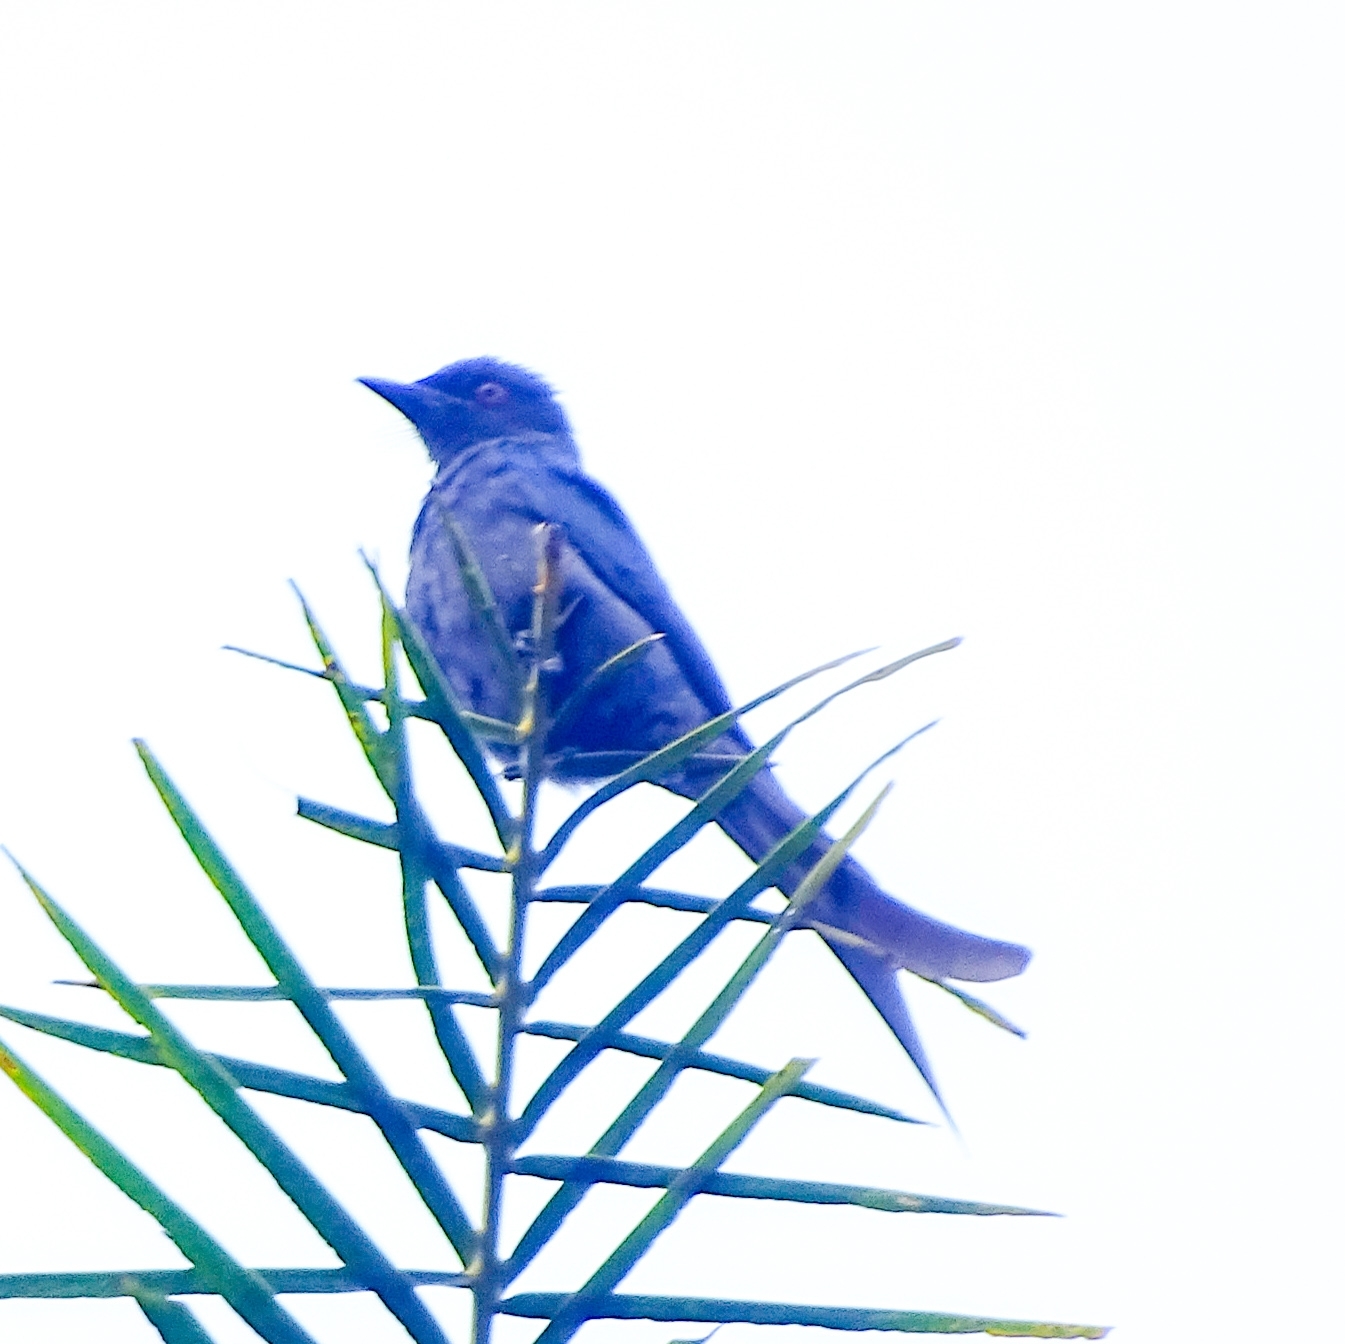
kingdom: Animalia
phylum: Chordata
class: Aves
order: Passeriformes
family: Dicruridae
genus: Dicrurus
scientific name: Dicrurus leucophaeus
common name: Ashy drongo
